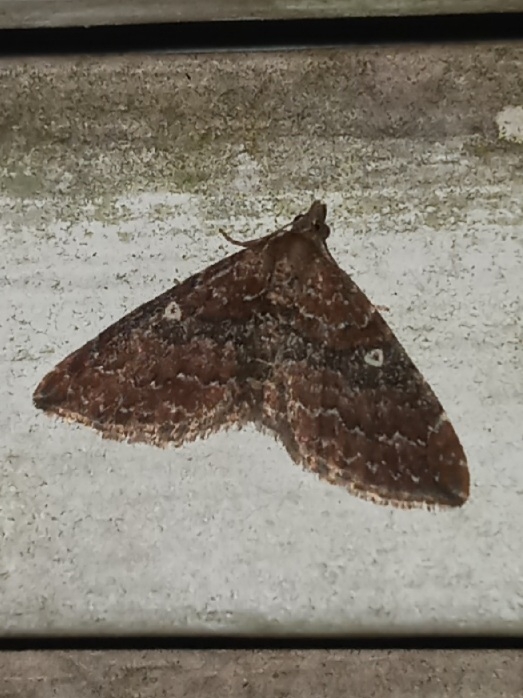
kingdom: Animalia
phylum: Arthropoda
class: Insecta
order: Lepidoptera
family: Geometridae
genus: Orthonama
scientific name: Orthonama obstipata
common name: The gem
